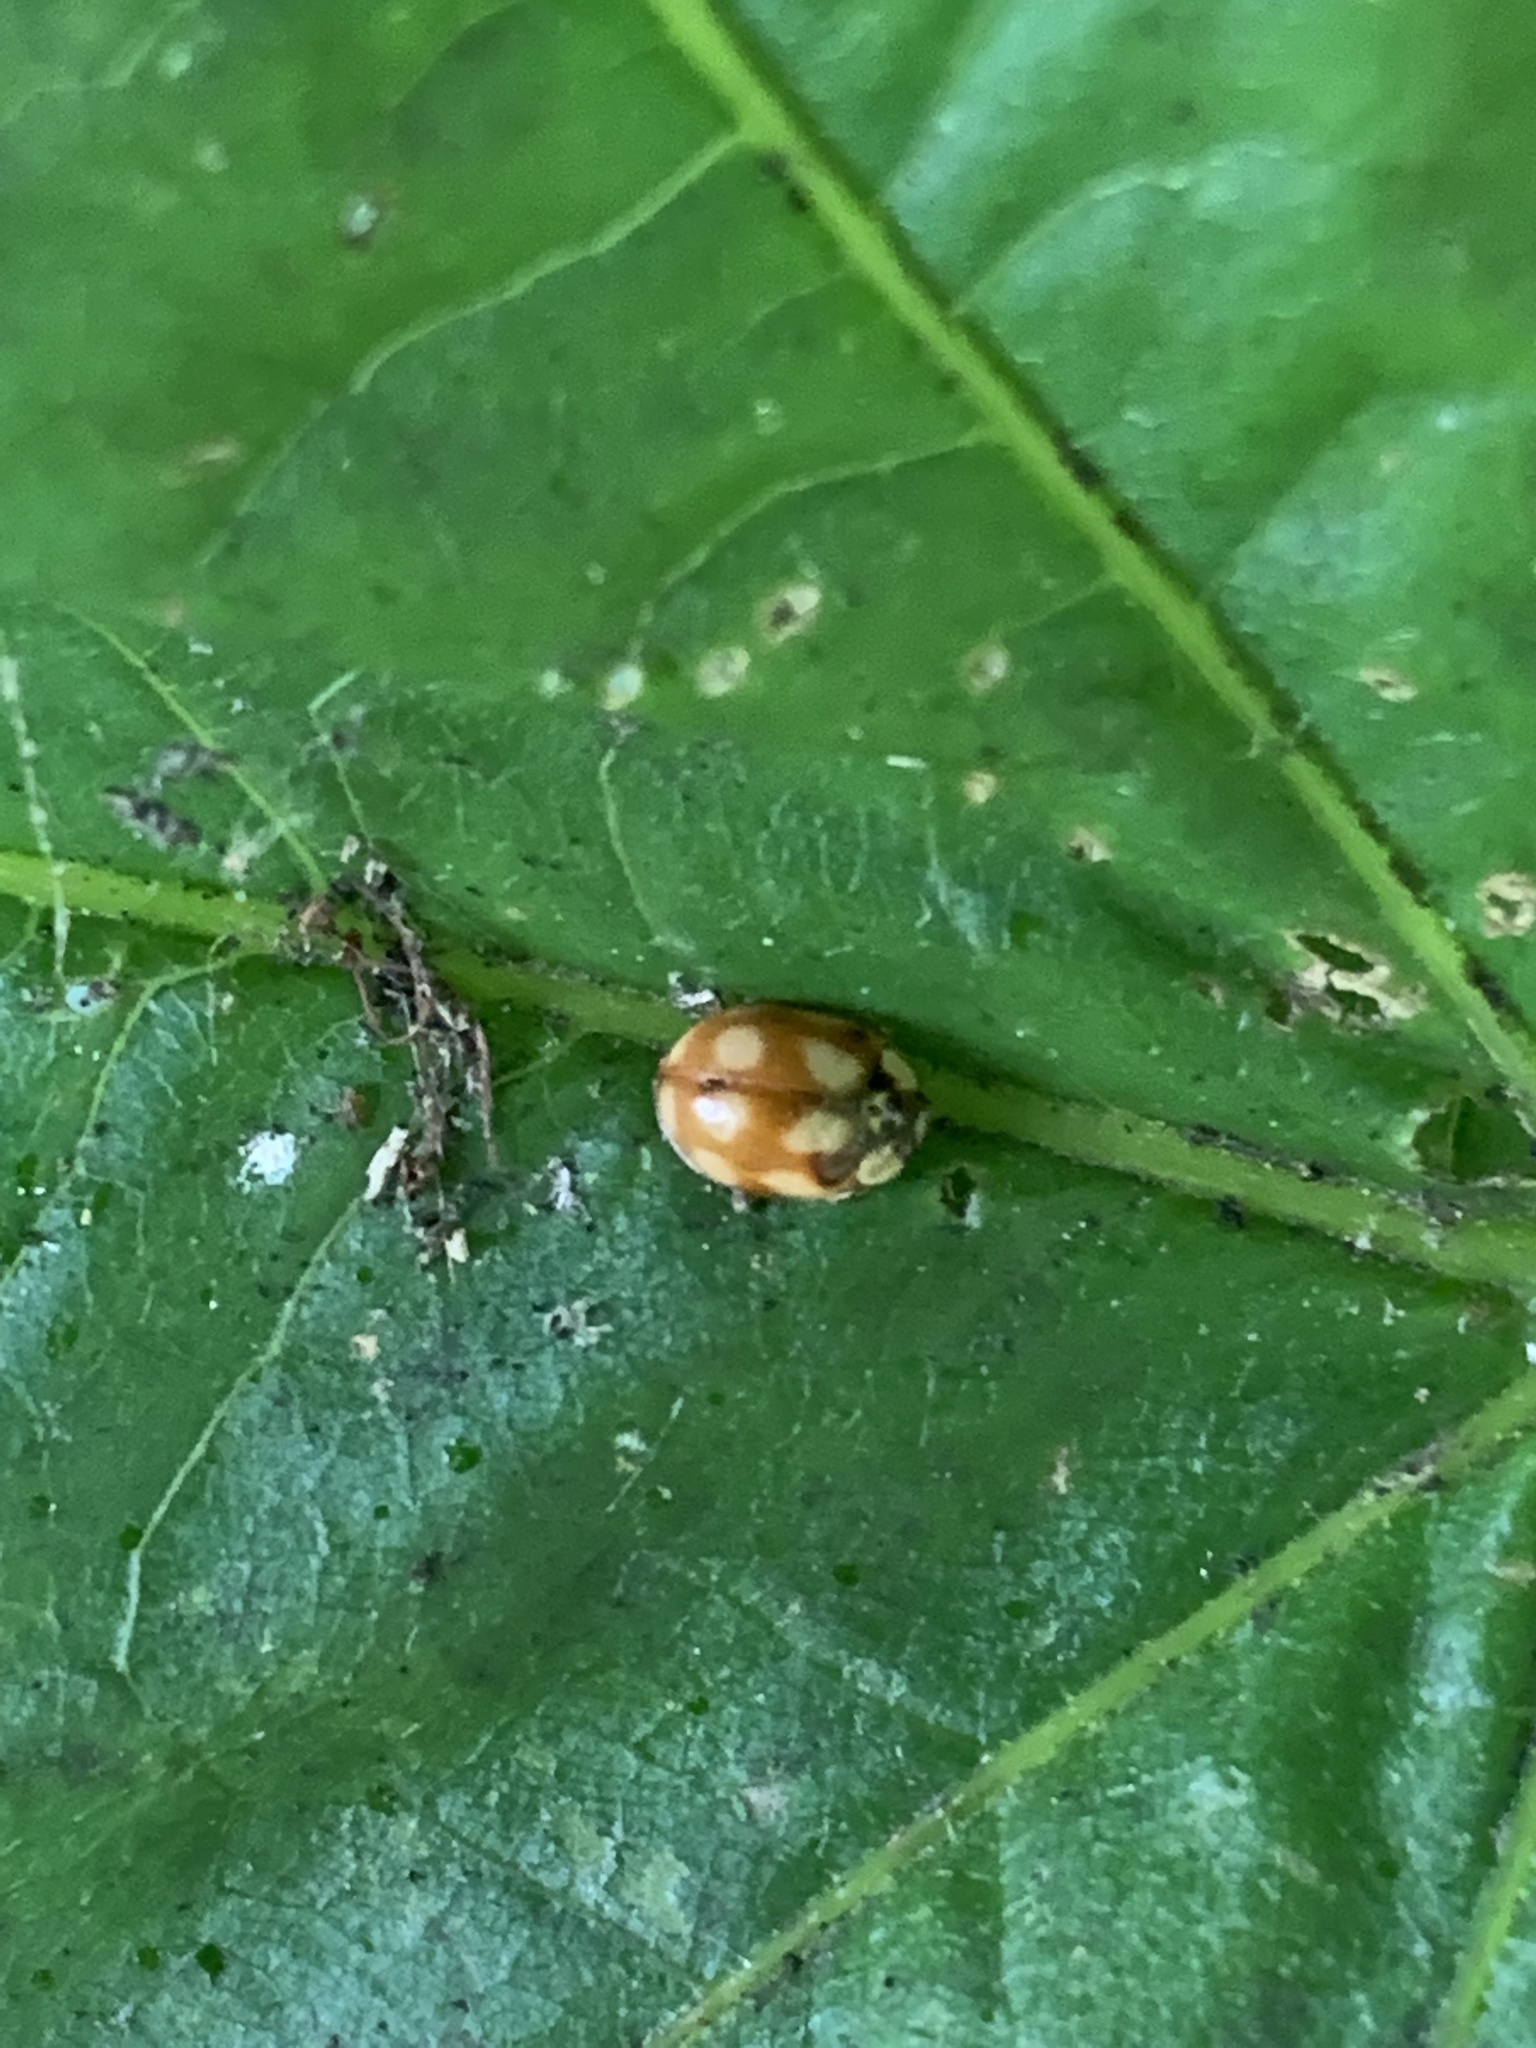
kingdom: Animalia
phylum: Arthropoda
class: Insecta
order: Coleoptera
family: Coccinellidae
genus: Adalia
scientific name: Adalia decempunctata
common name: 10-spot ladybird
